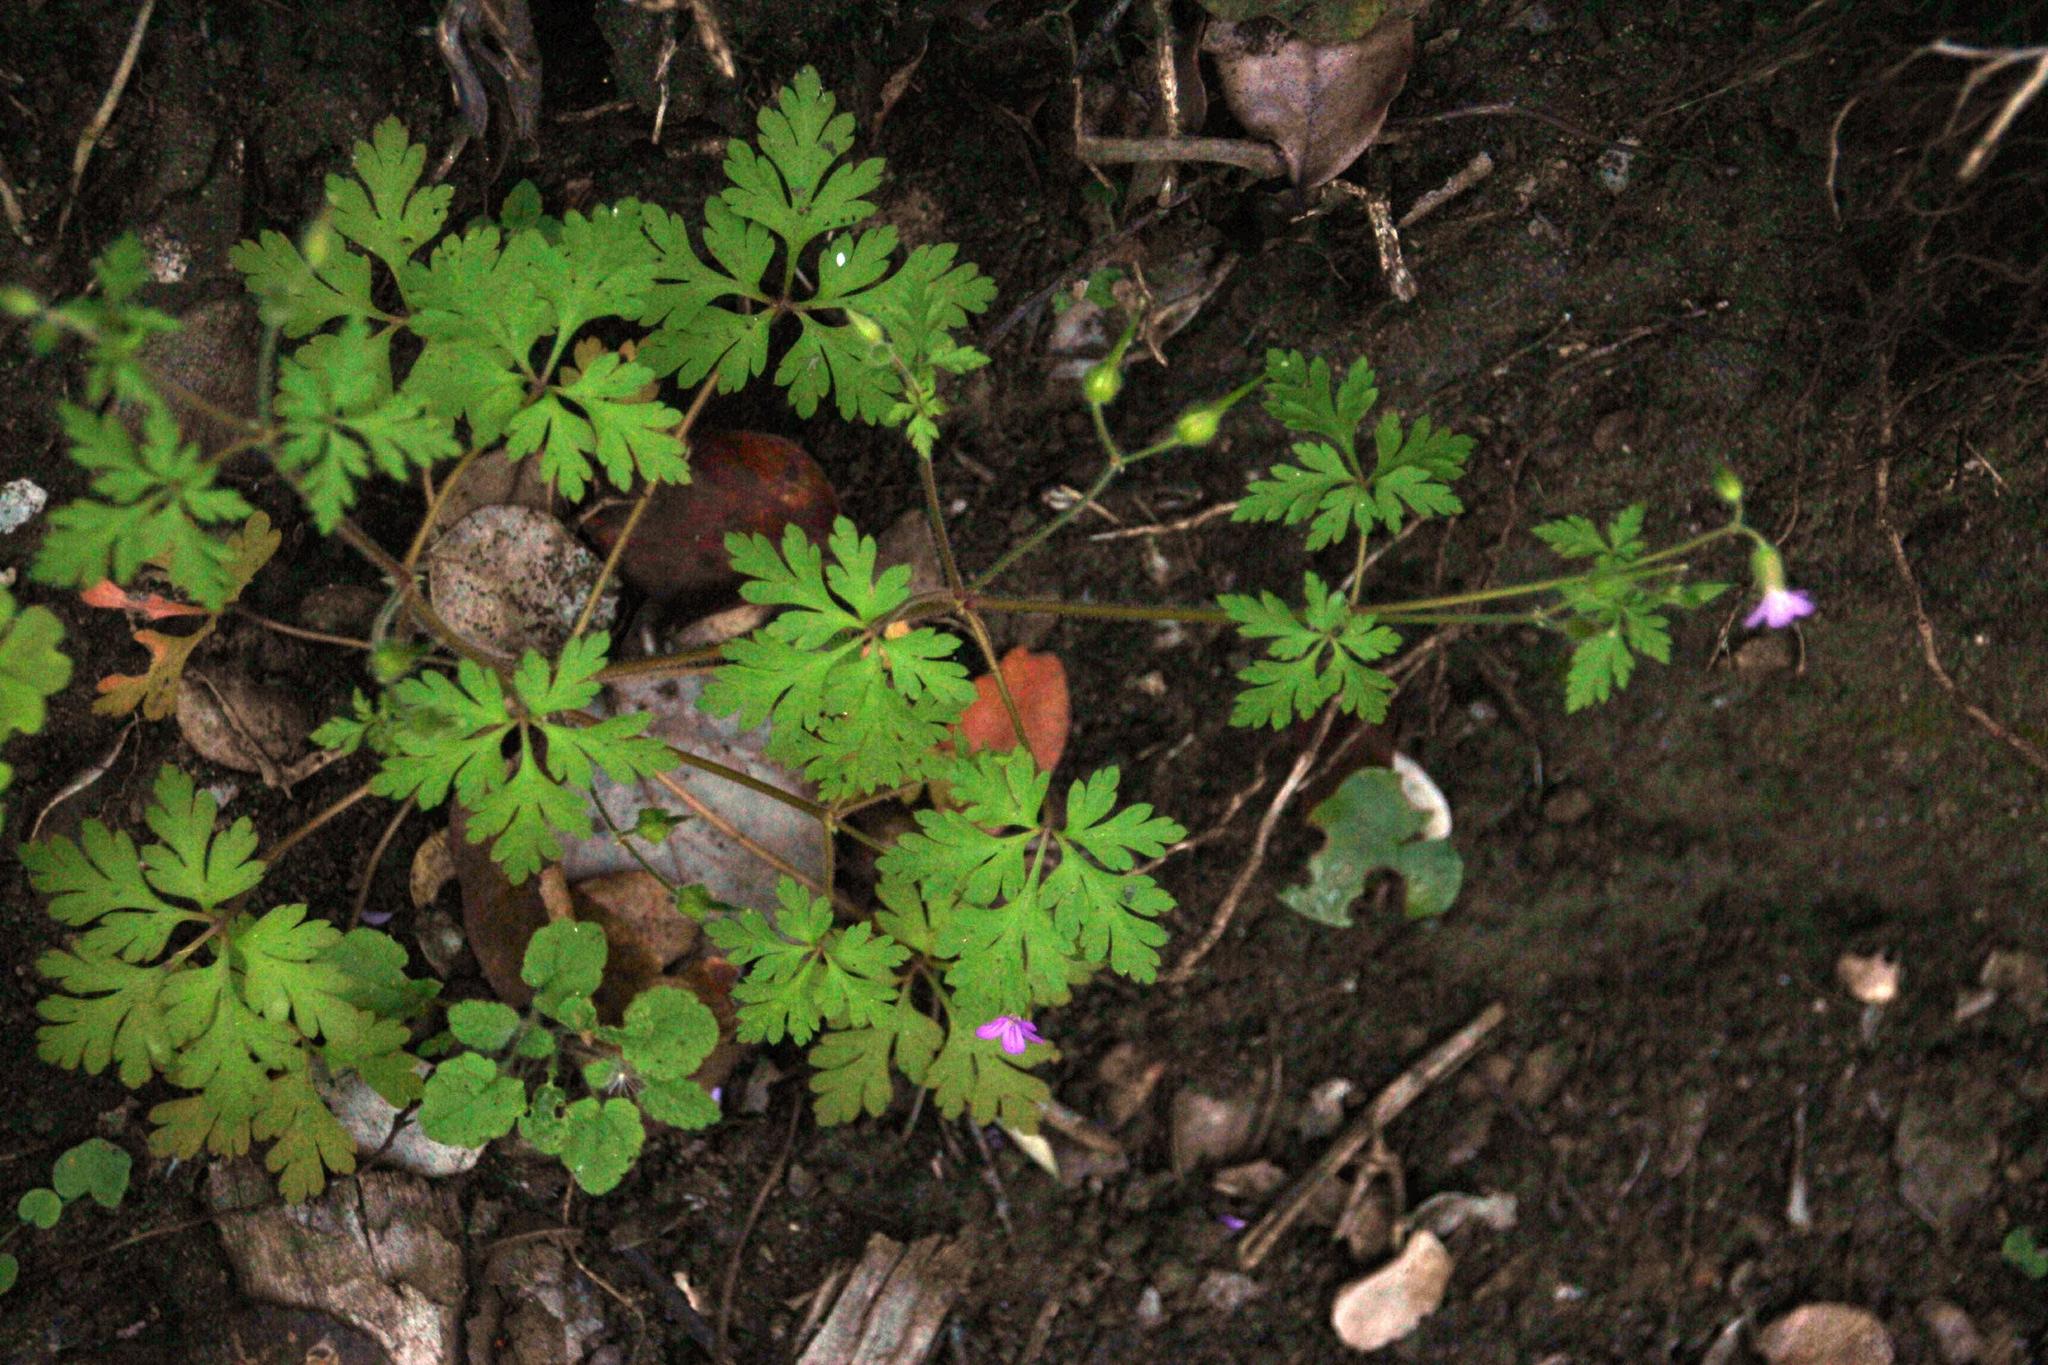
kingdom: Plantae
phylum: Tracheophyta
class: Magnoliopsida
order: Geraniales
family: Geraniaceae
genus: Geranium
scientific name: Geranium robertianum
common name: Herb-robert
